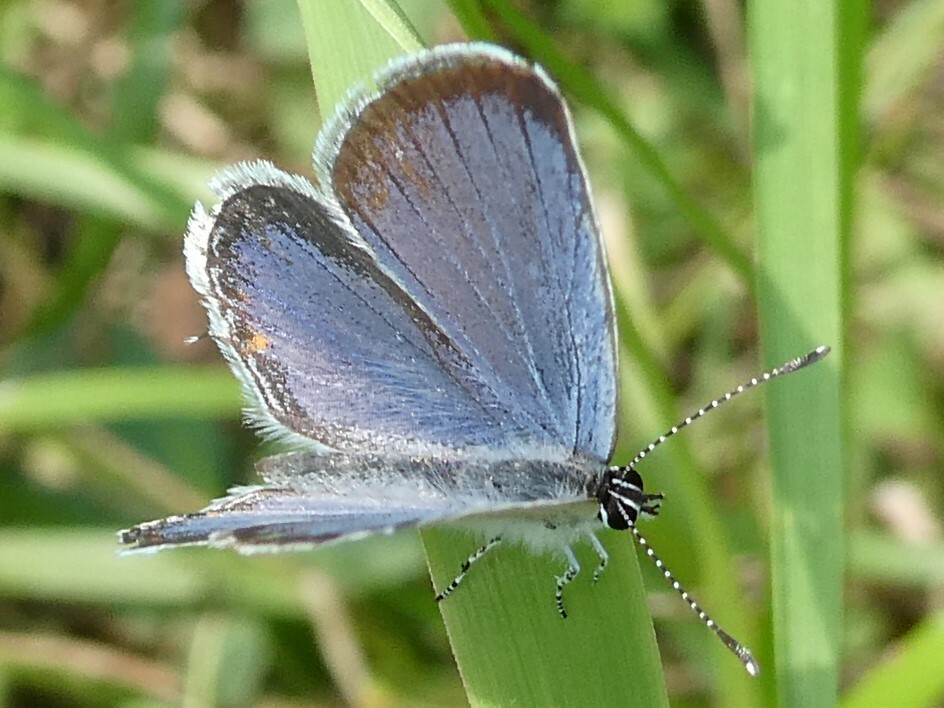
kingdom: Animalia
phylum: Arthropoda
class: Insecta
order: Lepidoptera
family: Lycaenidae
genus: Elkalyce
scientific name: Elkalyce comyntas
